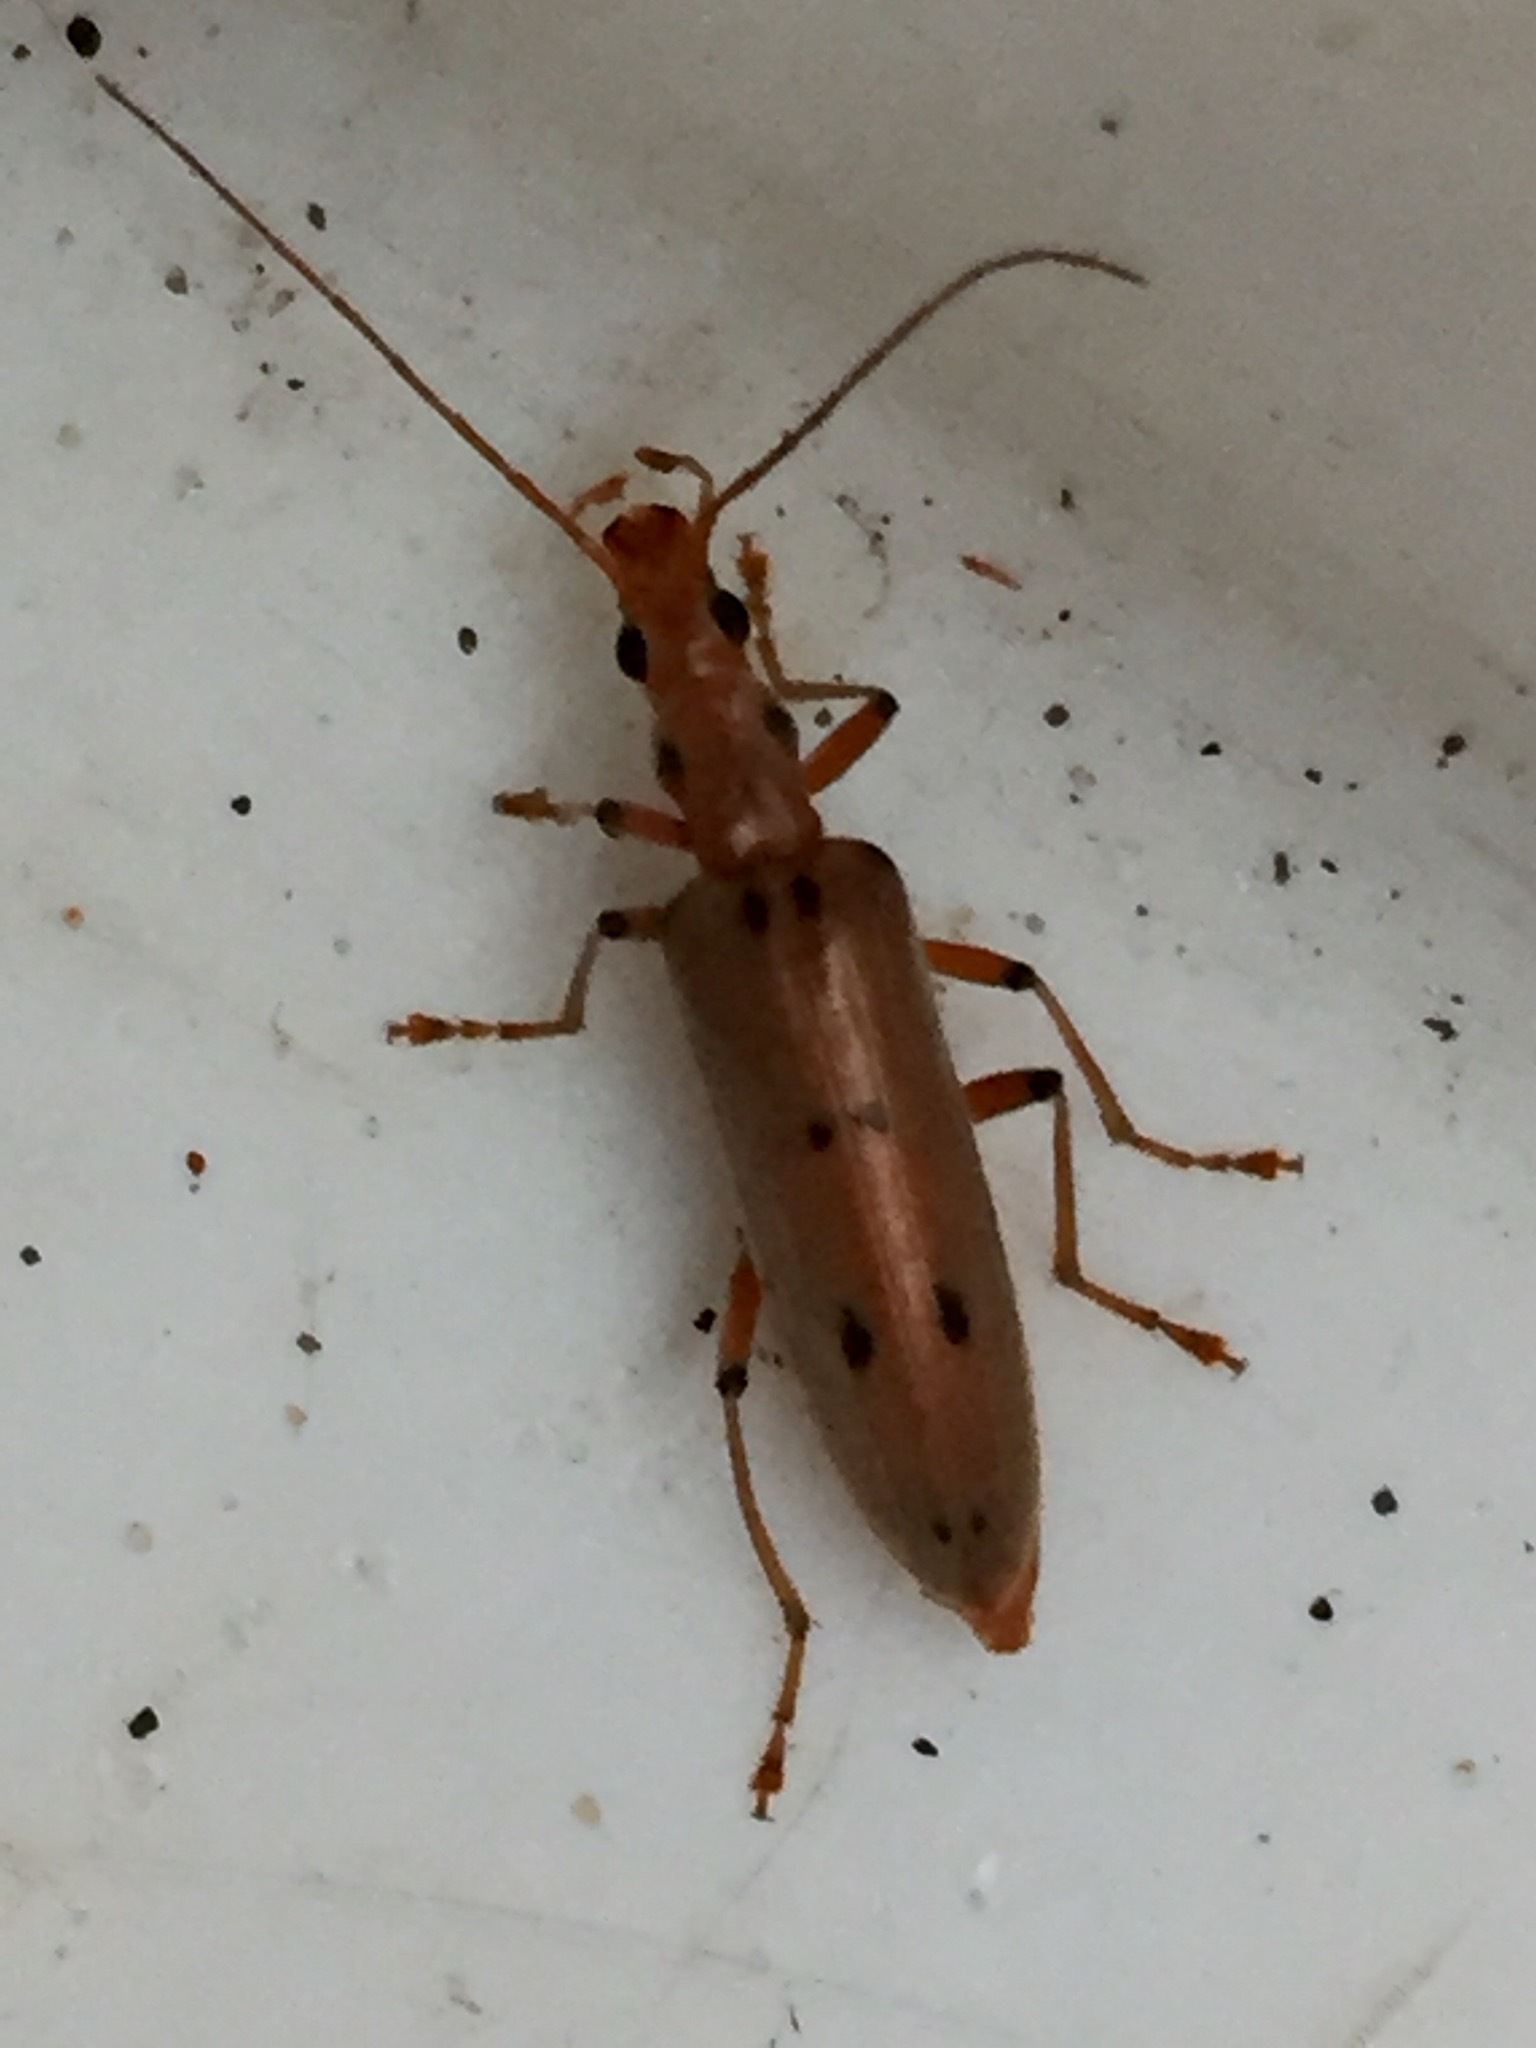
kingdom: Animalia
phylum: Arthropoda
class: Insecta
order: Coleoptera
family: Oedemeridae
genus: Parisopalpus
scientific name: Parisopalpus
